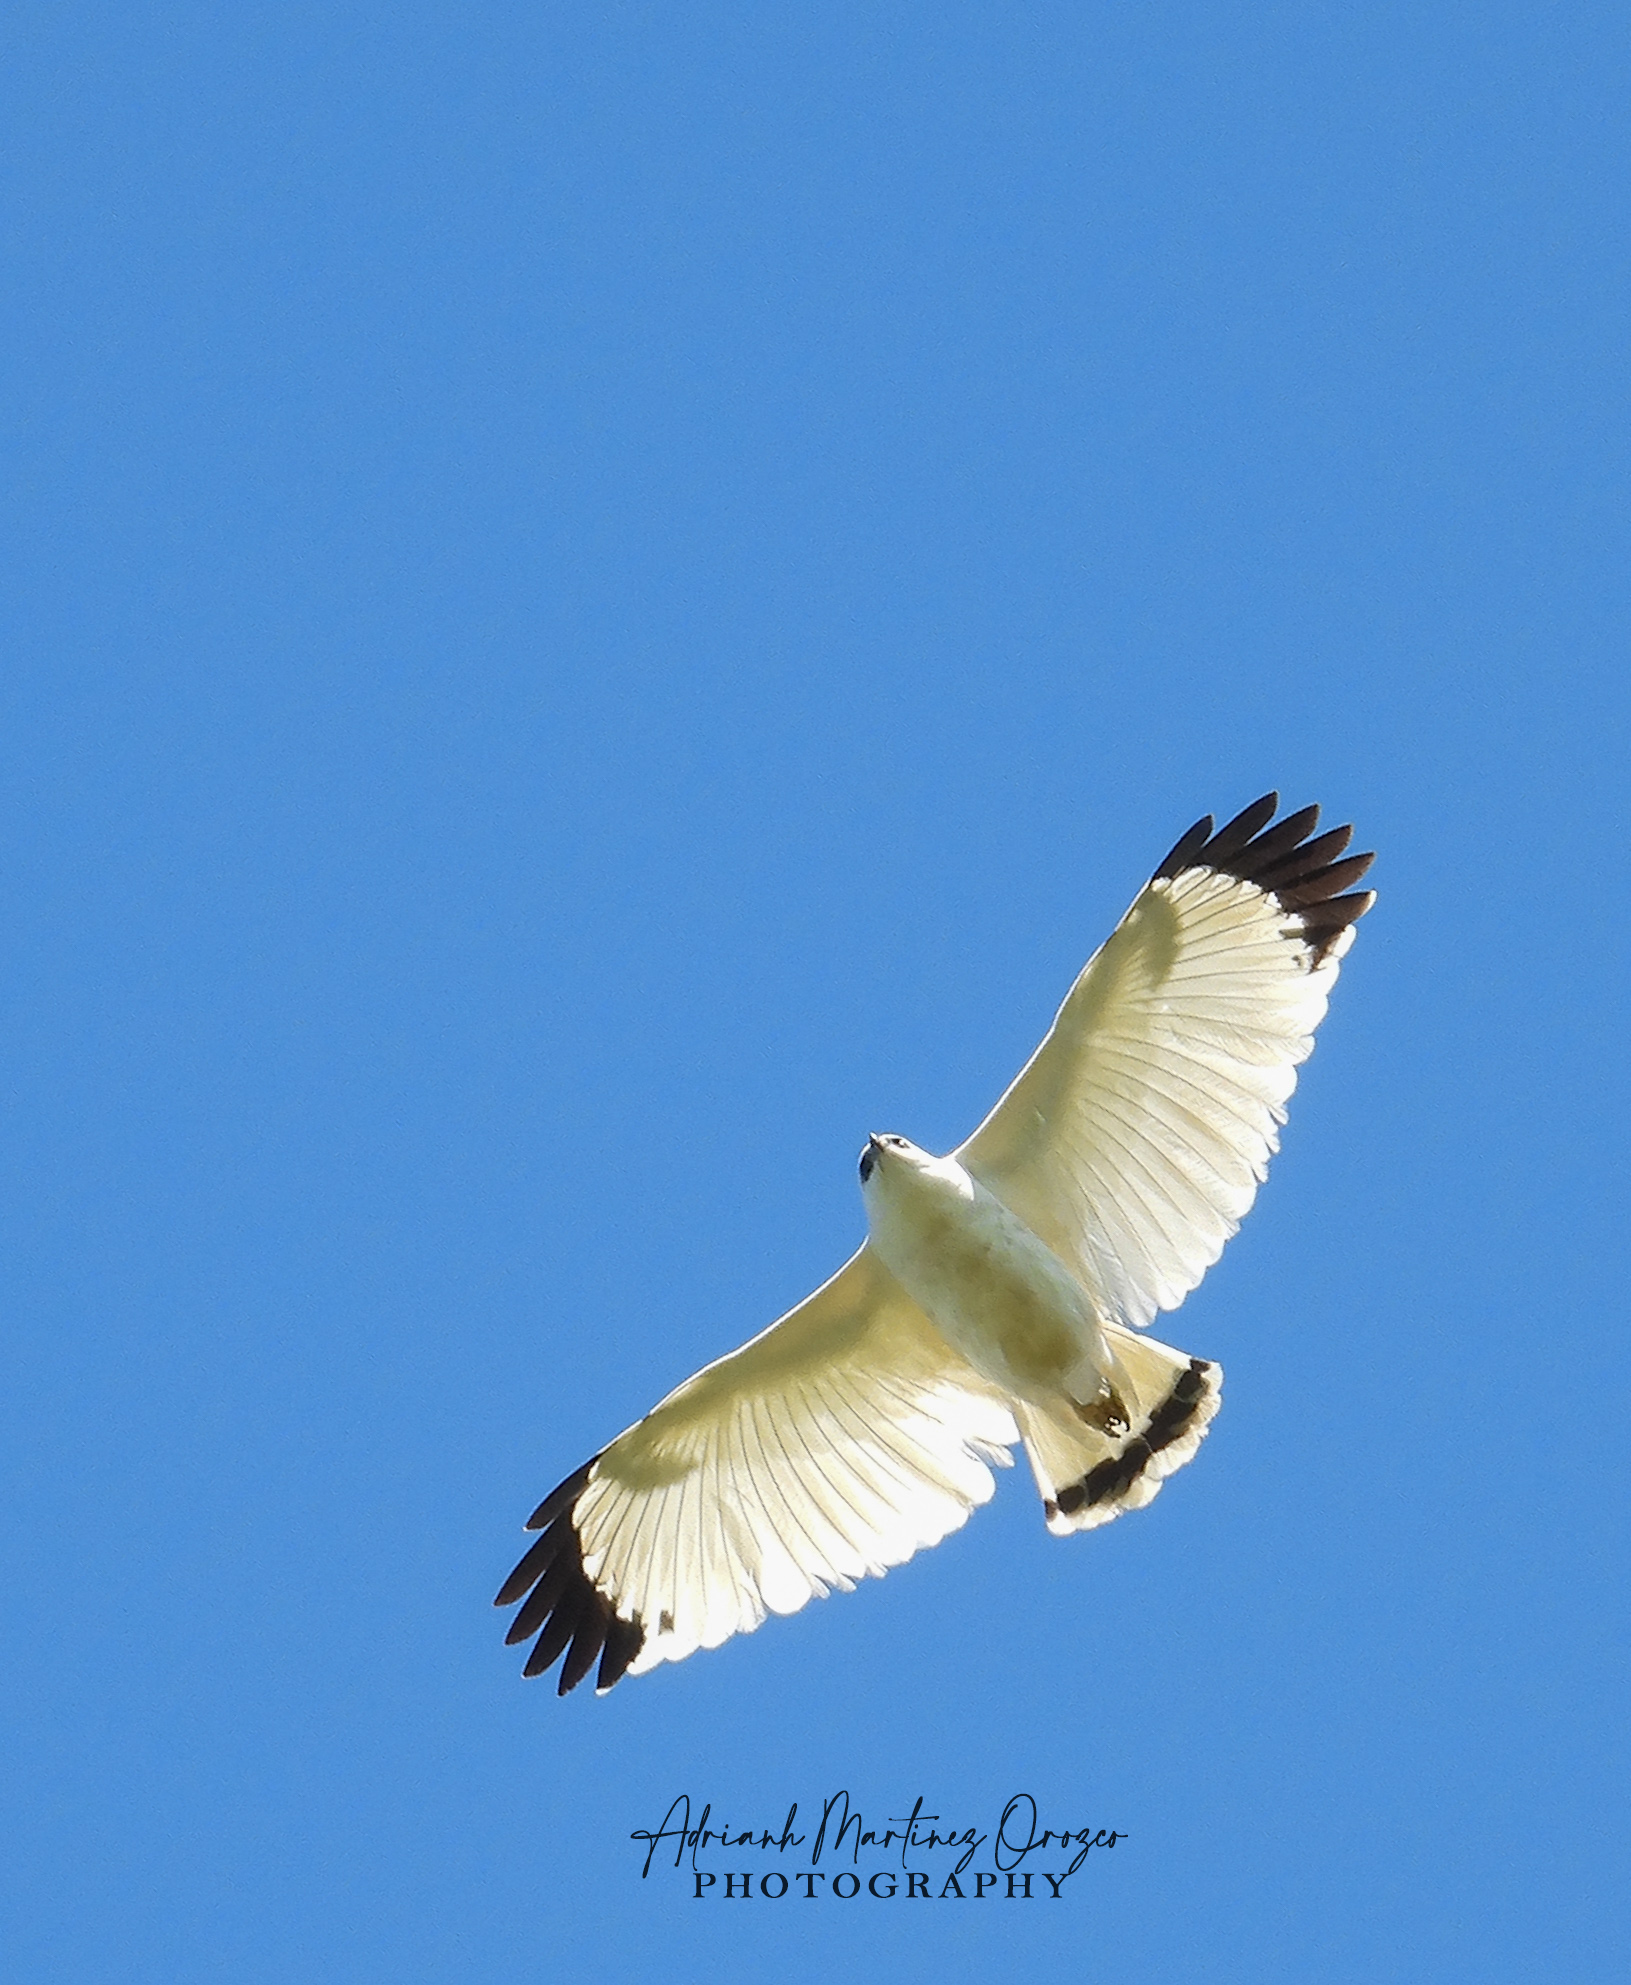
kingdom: Animalia
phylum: Chordata
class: Aves
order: Accipitriformes
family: Accipitridae
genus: Leucopternis
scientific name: Leucopternis albicollis
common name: White hawk
